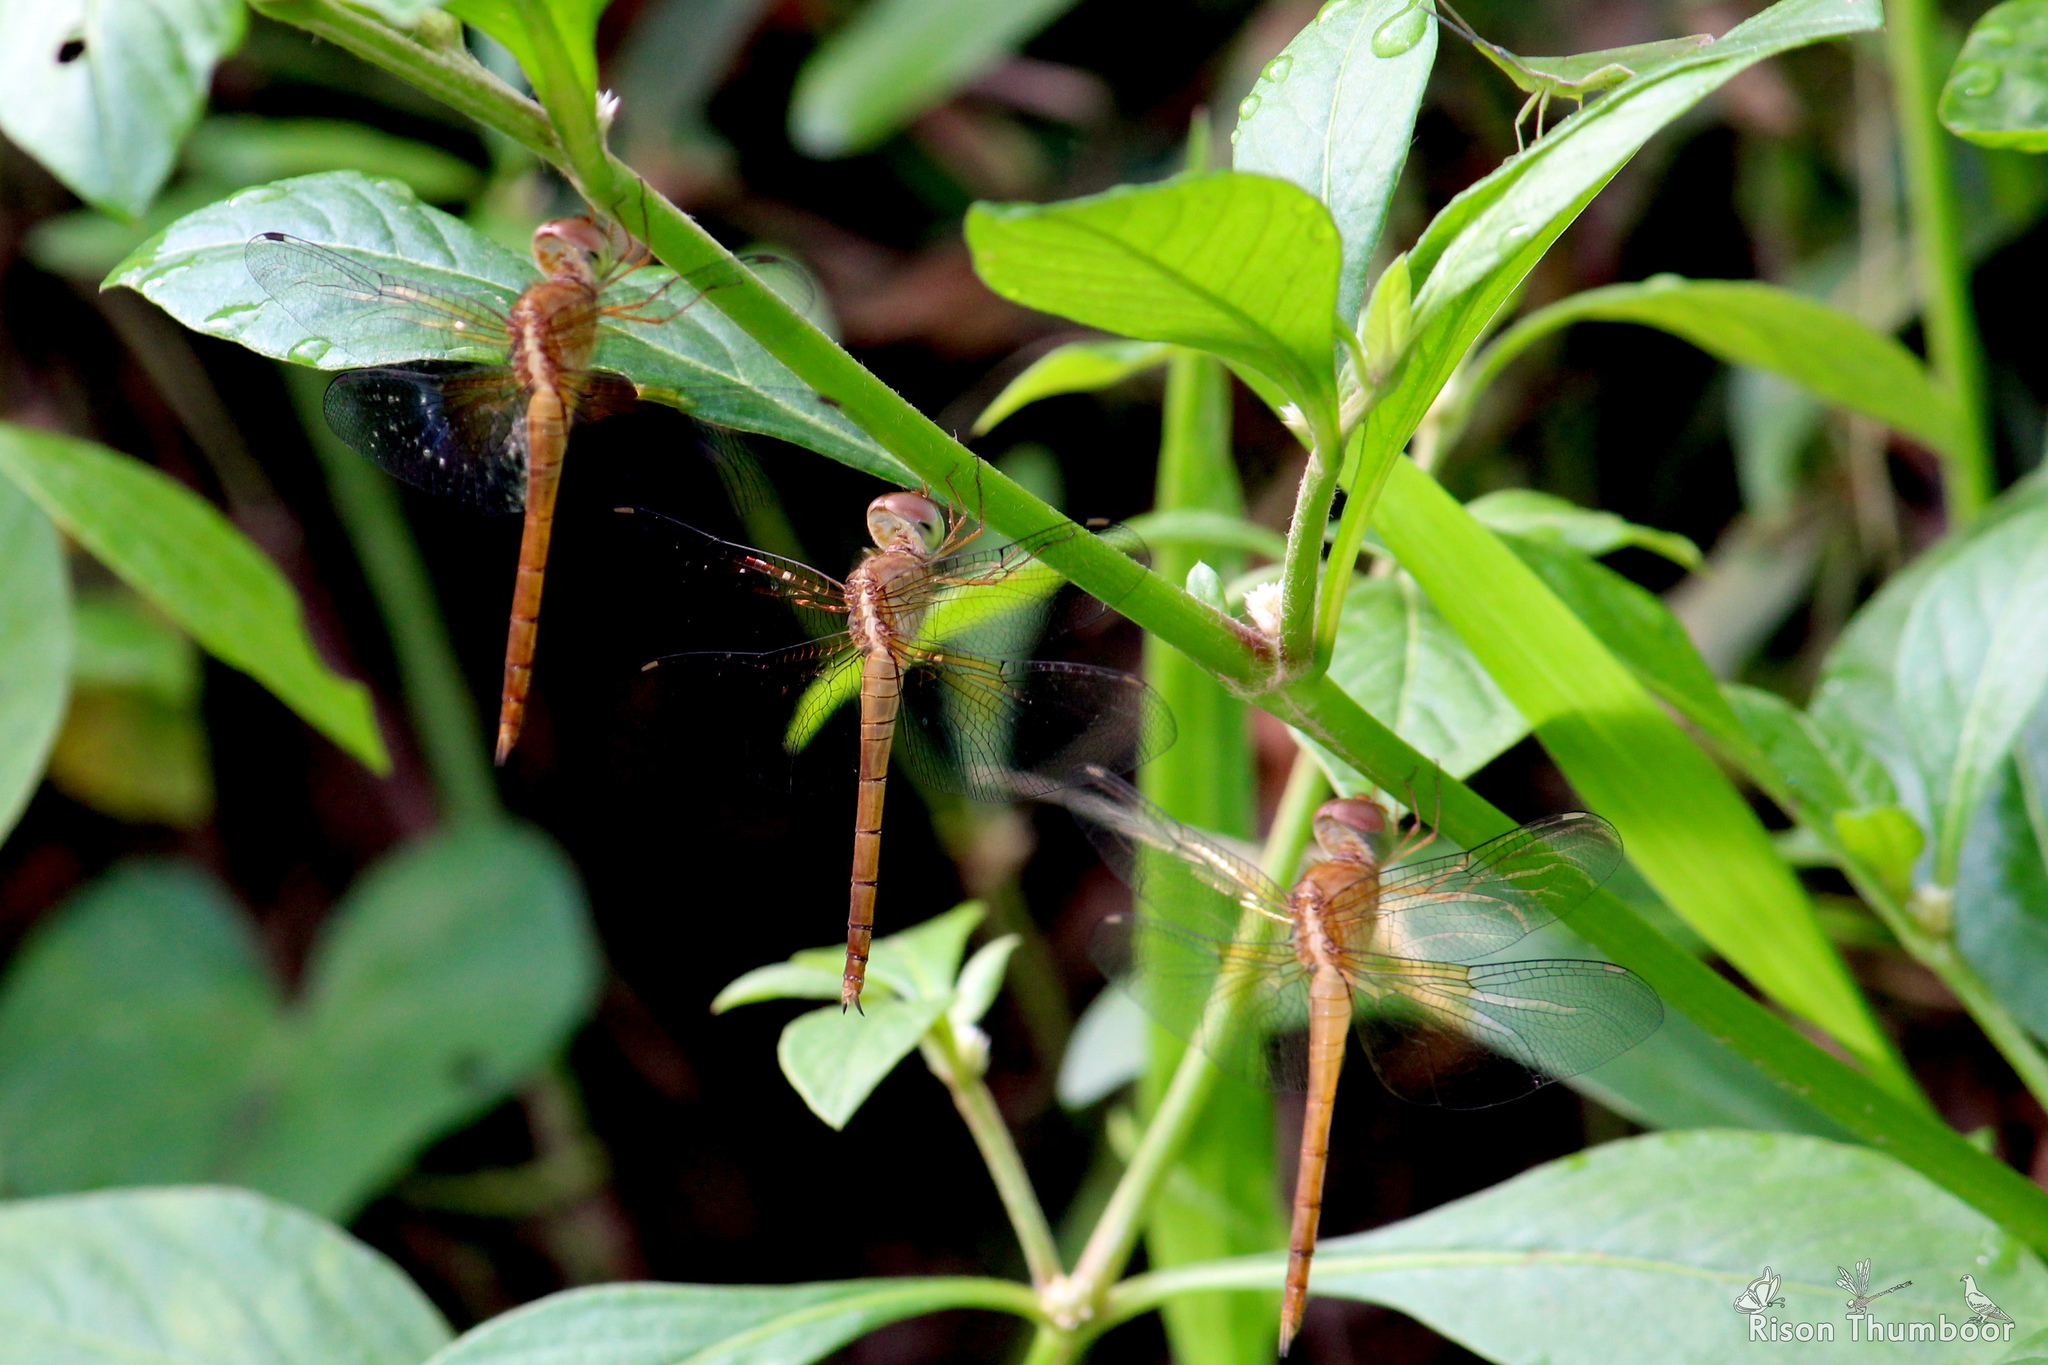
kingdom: Animalia
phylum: Arthropoda
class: Insecta
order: Odonata
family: Libellulidae
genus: Tholymis
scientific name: Tholymis tillarga
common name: Coral-tailed cloud wing
